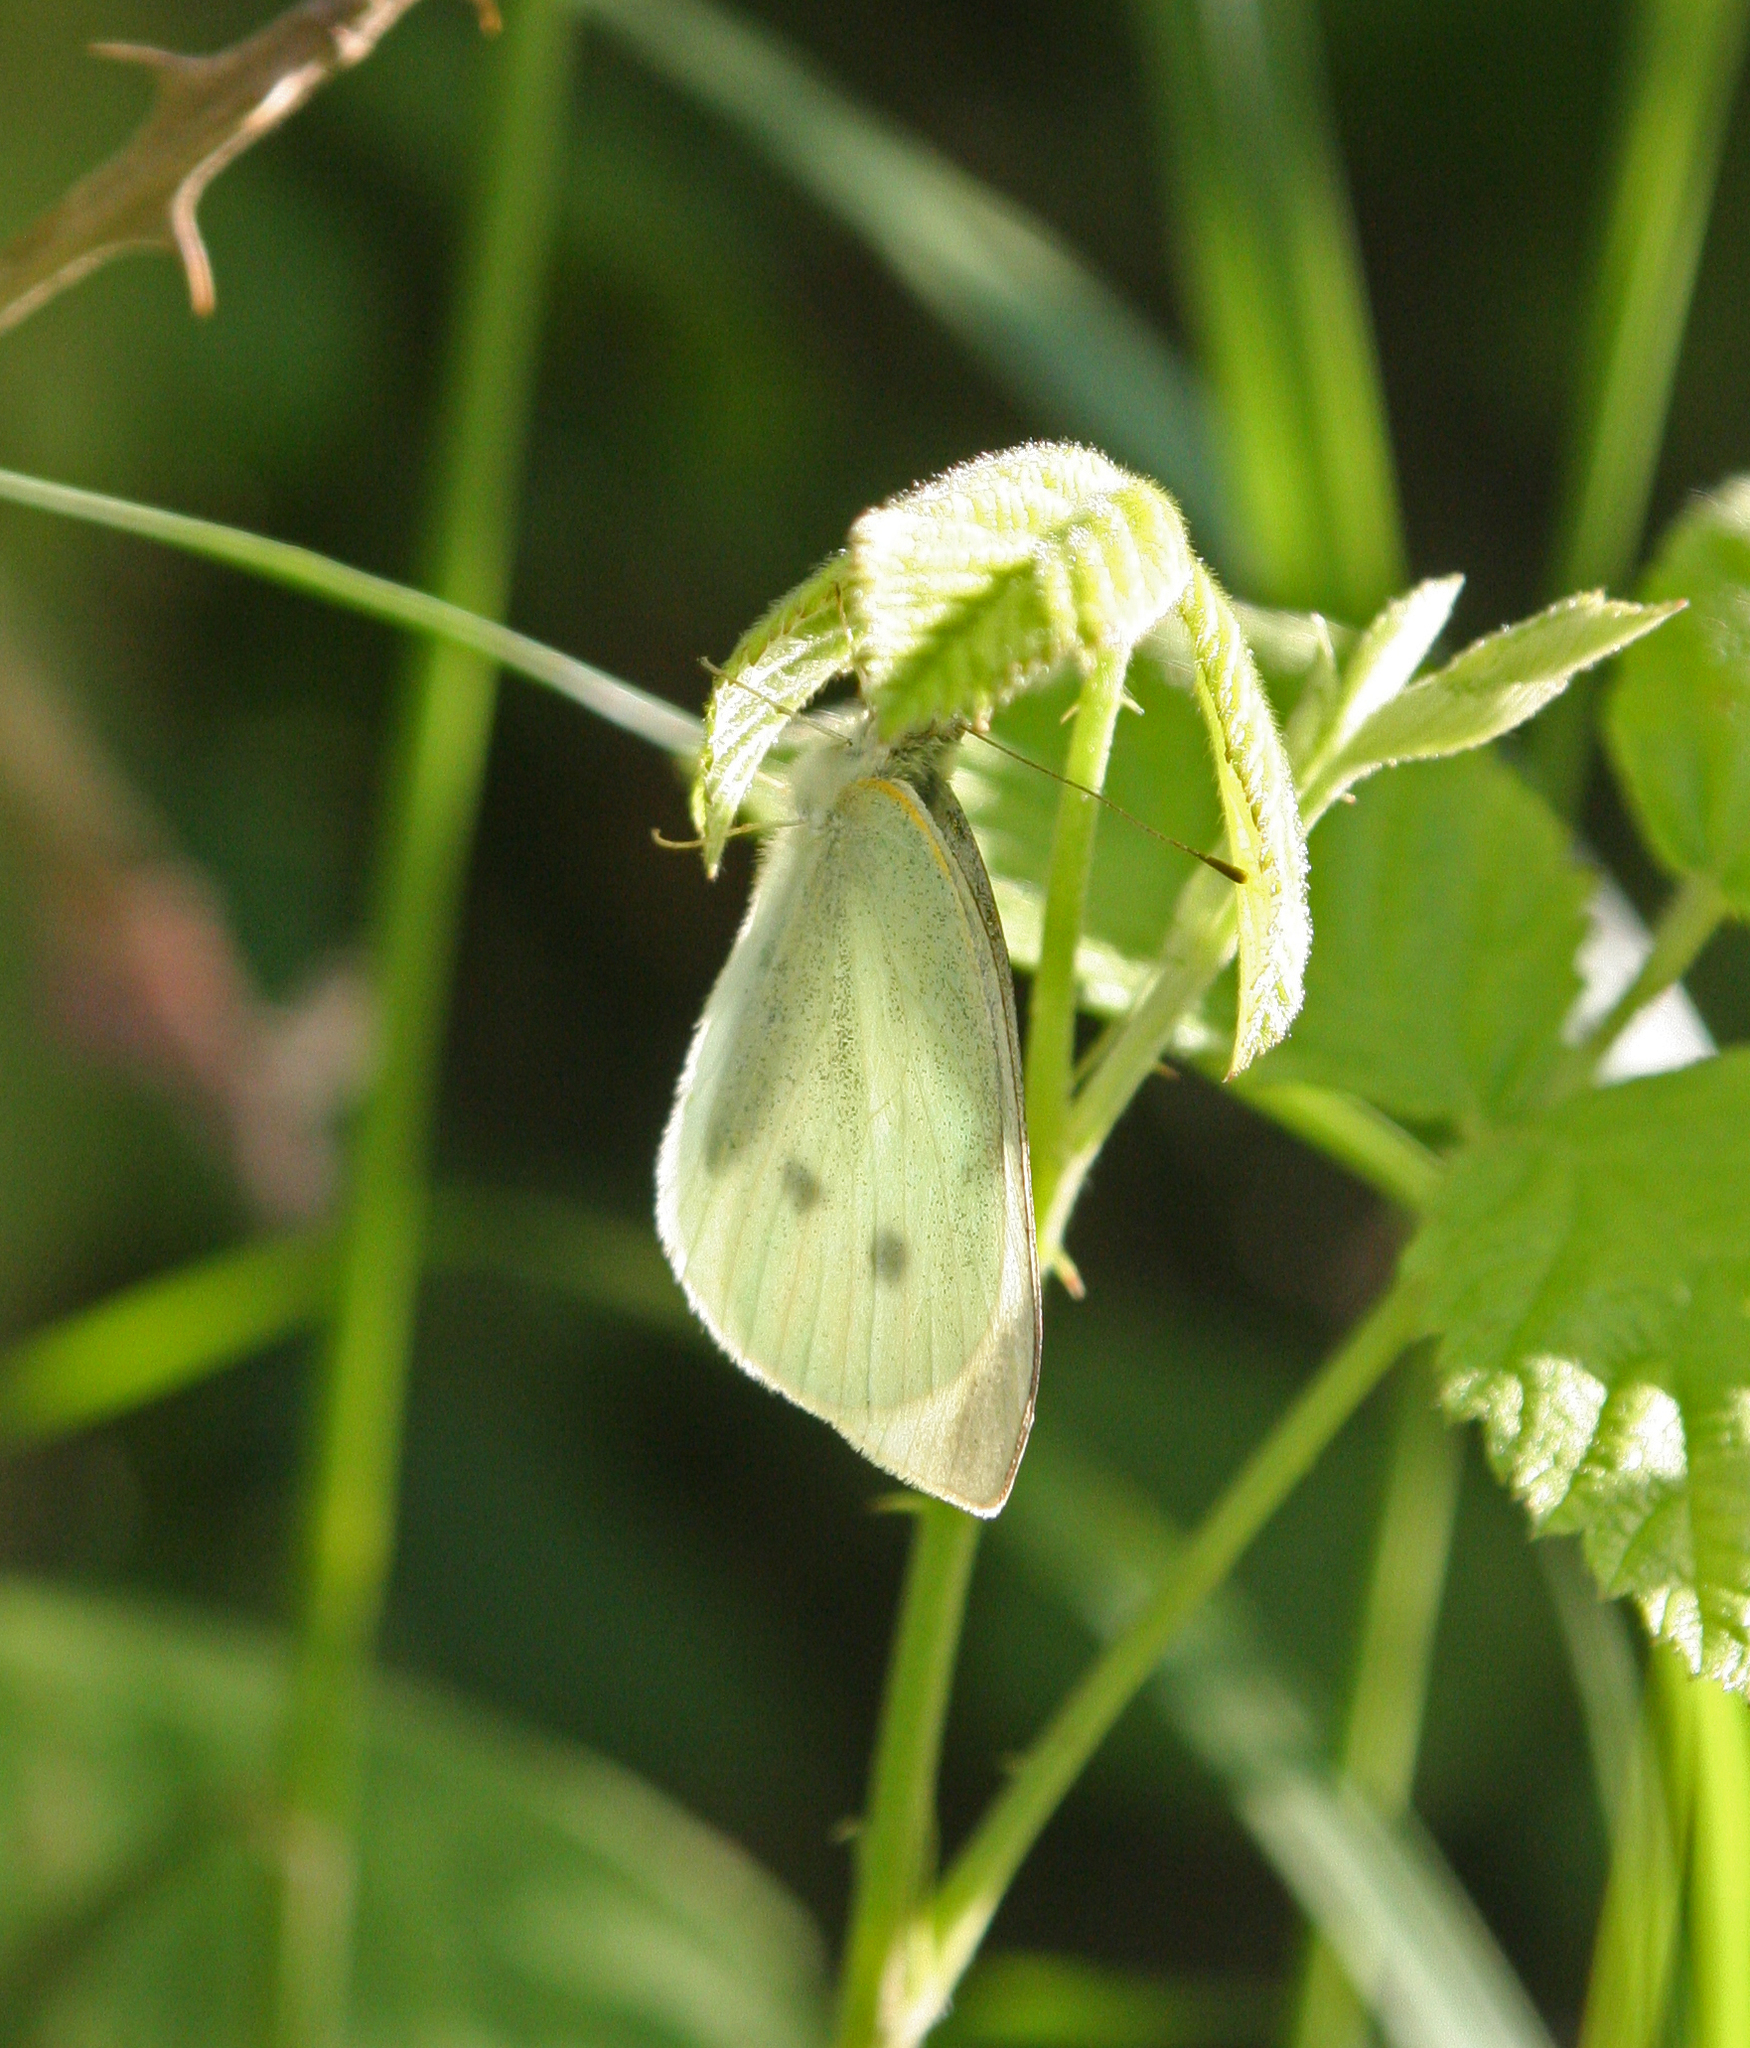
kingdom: Animalia
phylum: Arthropoda
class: Insecta
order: Lepidoptera
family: Pieridae
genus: Pieris
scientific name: Pieris rapae
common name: Small white
